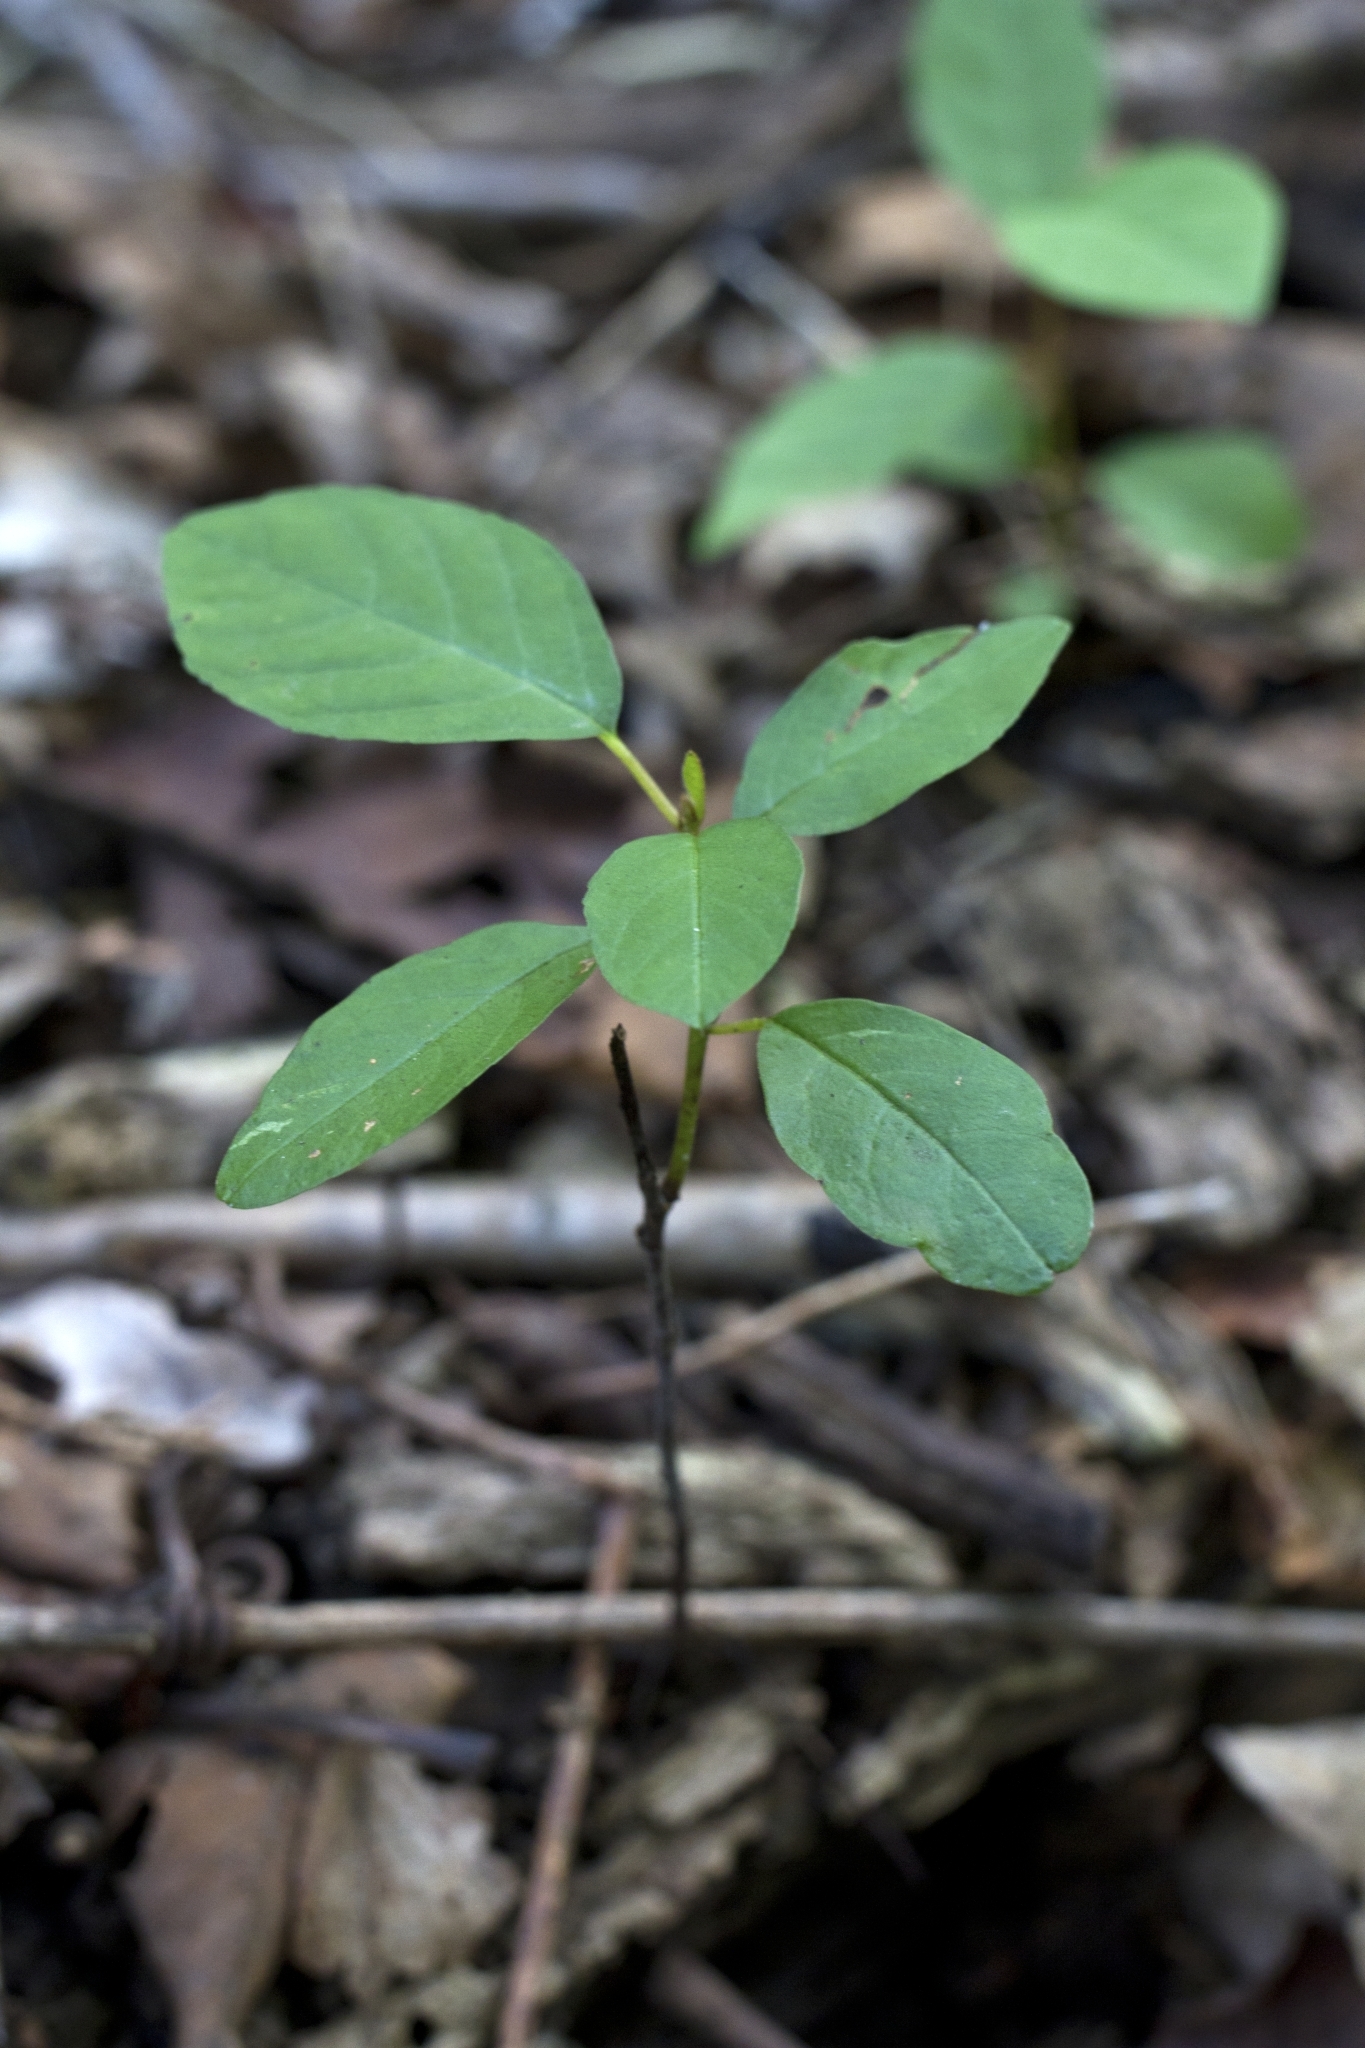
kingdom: Plantae
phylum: Tracheophyta
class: Magnoliopsida
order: Rosales
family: Rhamnaceae
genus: Frangula
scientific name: Frangula alnus
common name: Alder buckthorn
